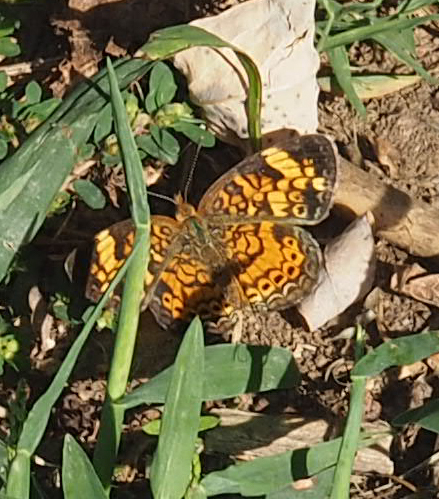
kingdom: Animalia
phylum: Arthropoda
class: Insecta
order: Lepidoptera
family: Nymphalidae
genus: Phyciodes
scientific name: Phyciodes tharos
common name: Pearl crescent
